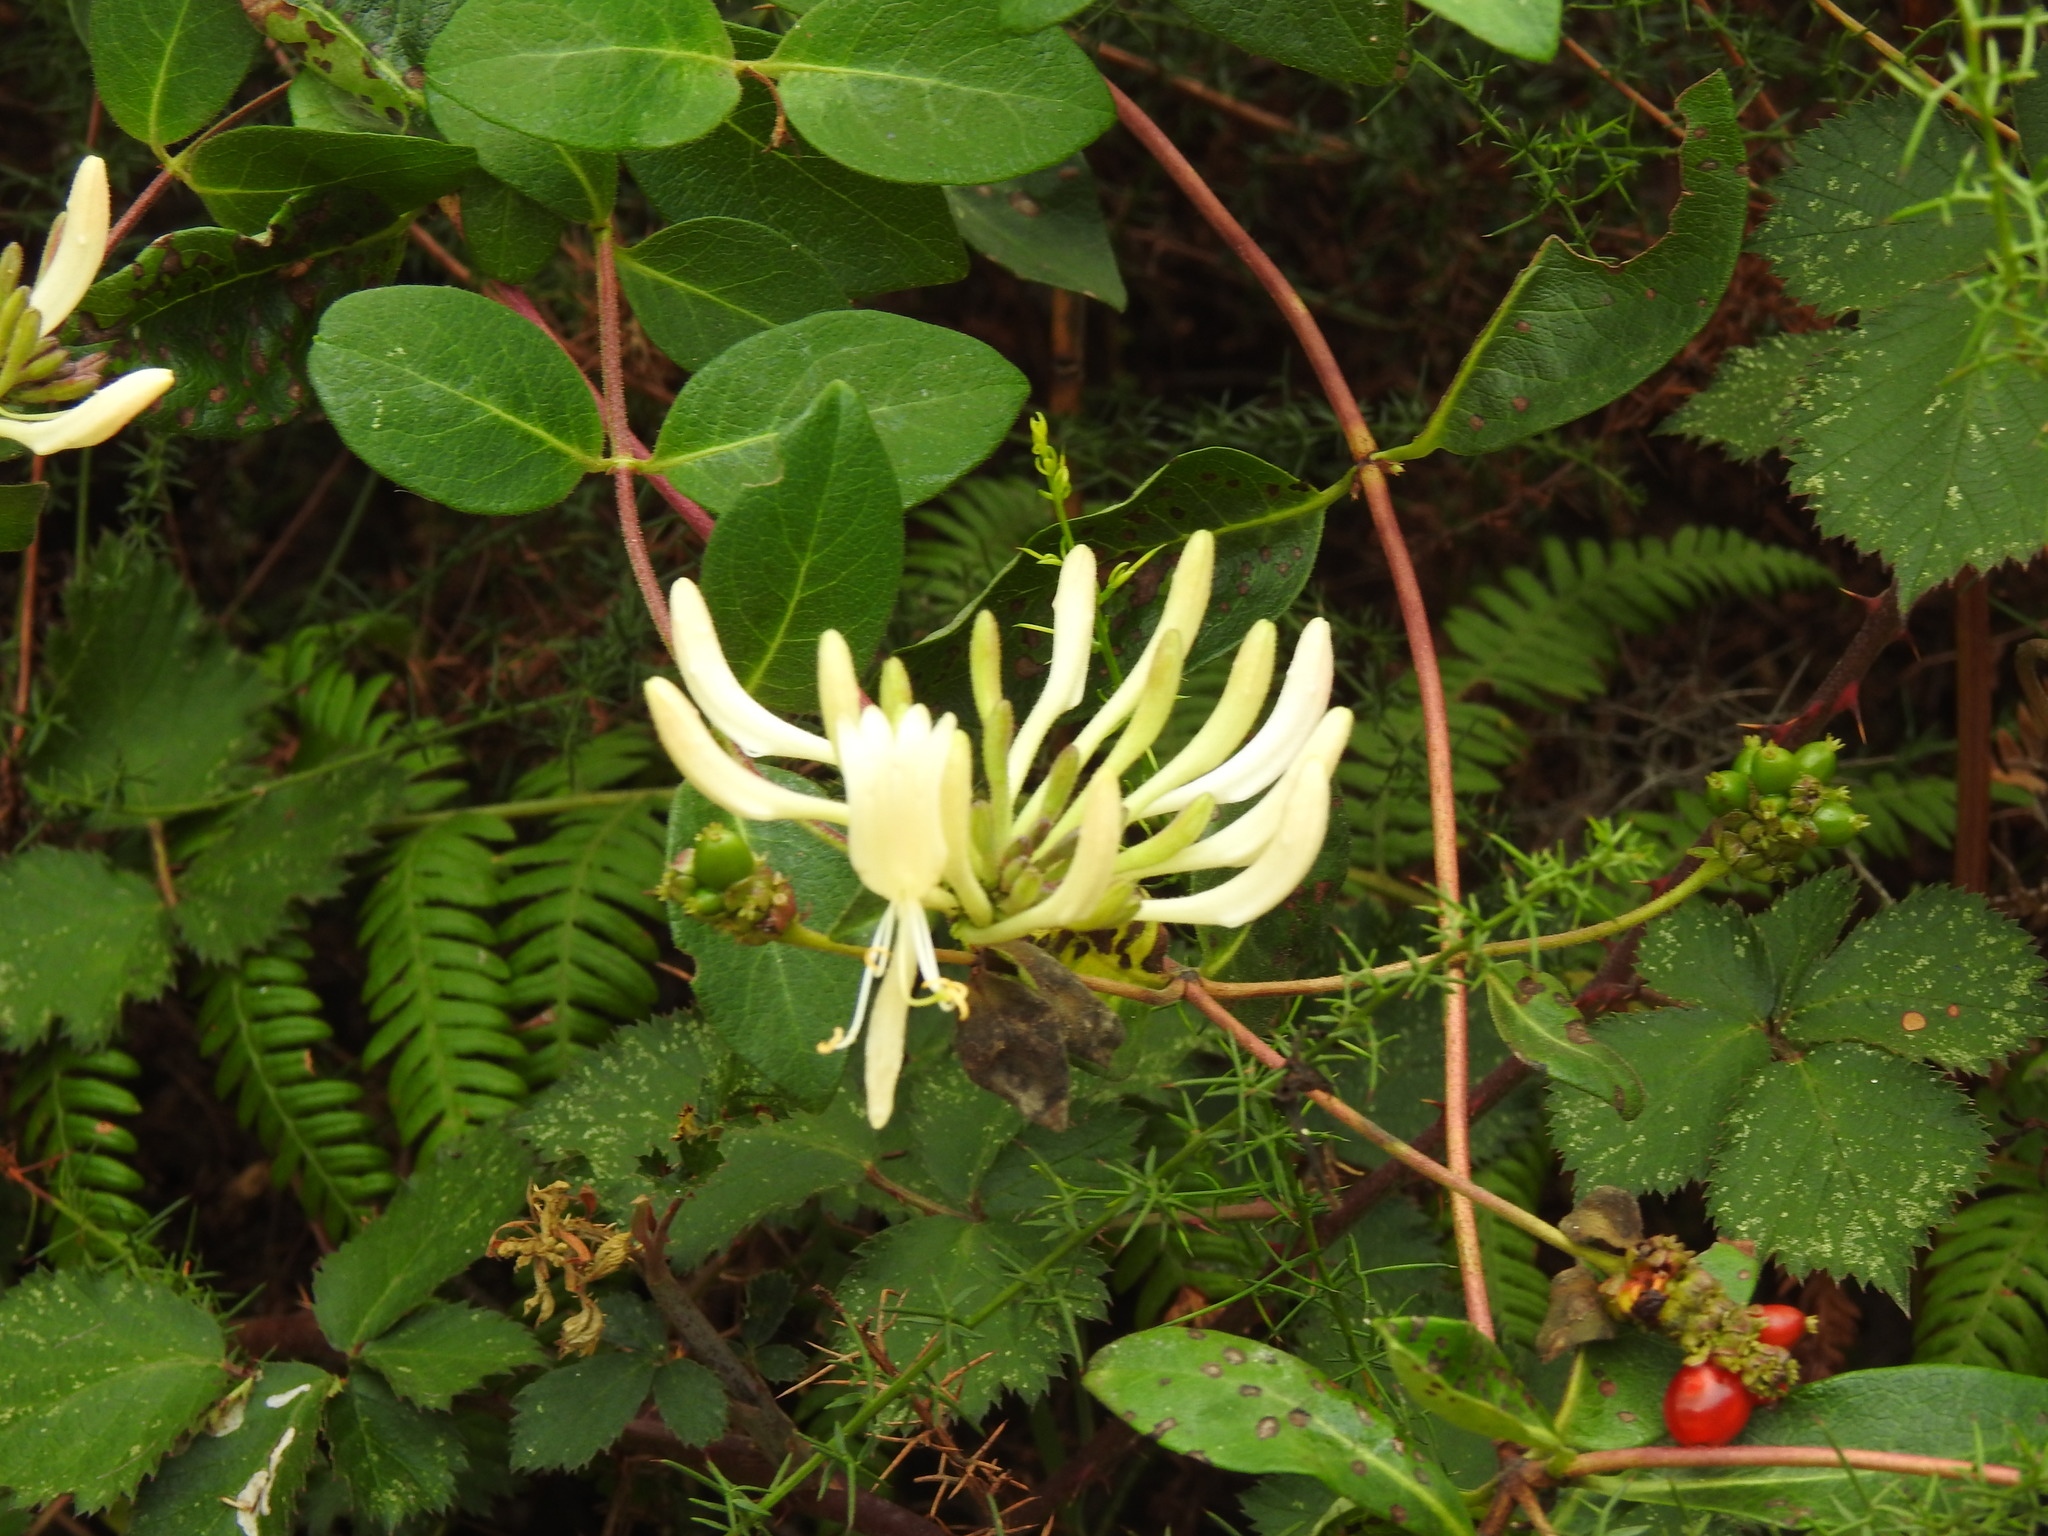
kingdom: Plantae
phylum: Tracheophyta
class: Magnoliopsida
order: Dipsacales
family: Caprifoliaceae
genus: Lonicera
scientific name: Lonicera periclymenum
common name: European honeysuckle
